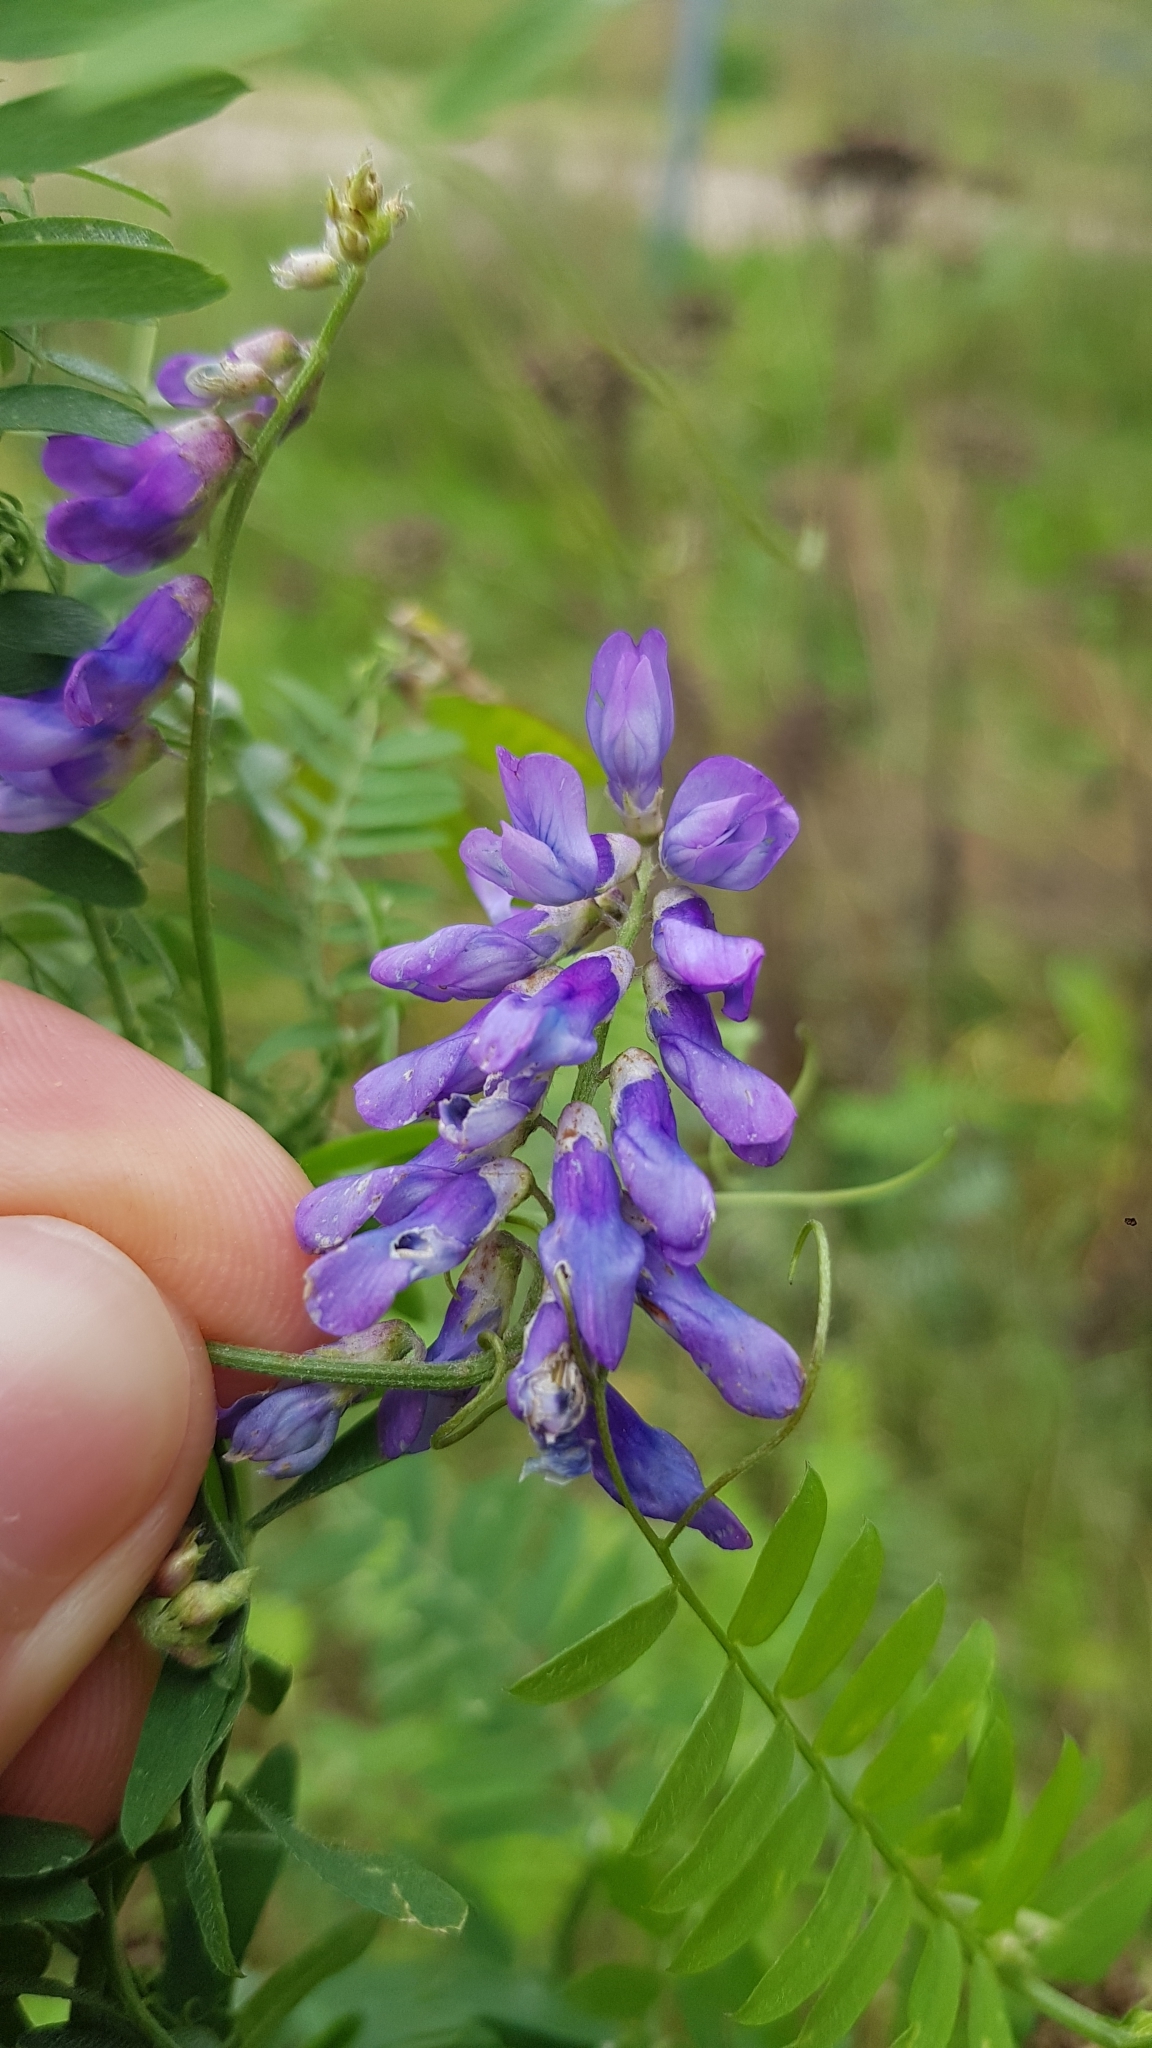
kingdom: Plantae
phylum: Tracheophyta
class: Magnoliopsida
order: Fabales
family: Fabaceae
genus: Vicia
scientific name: Vicia cracca
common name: Bird vetch
